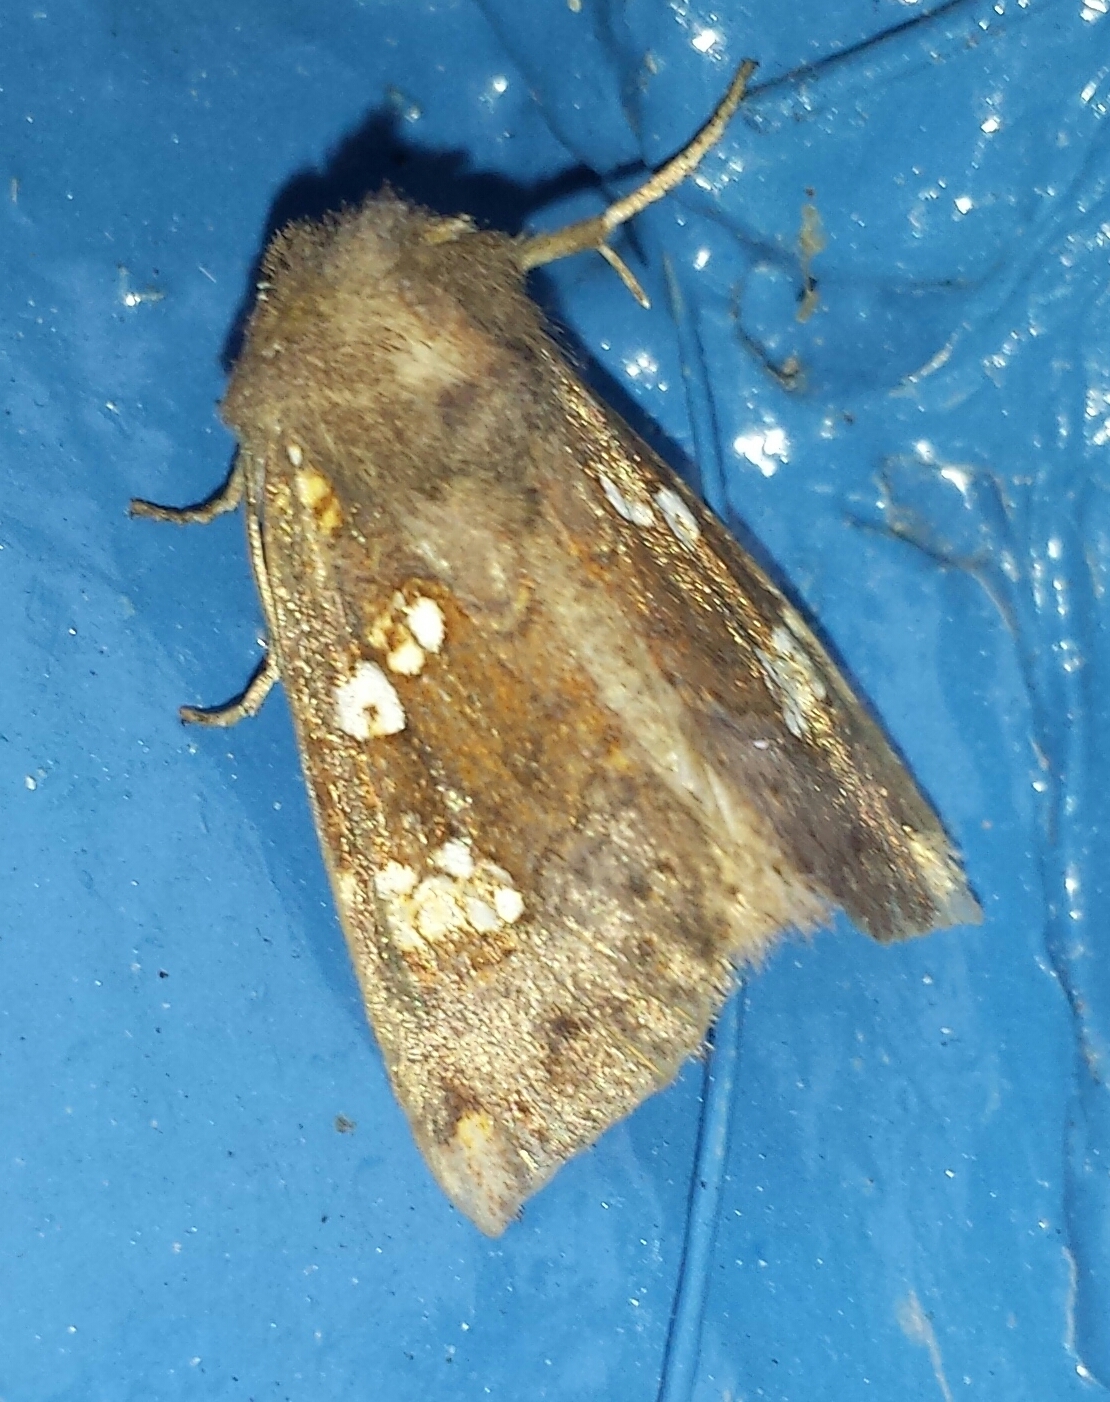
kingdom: Animalia
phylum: Arthropoda
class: Insecta
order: Lepidoptera
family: Noctuidae
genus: Papaipema
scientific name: Papaipema unimoda
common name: Meadow rue borer moth
